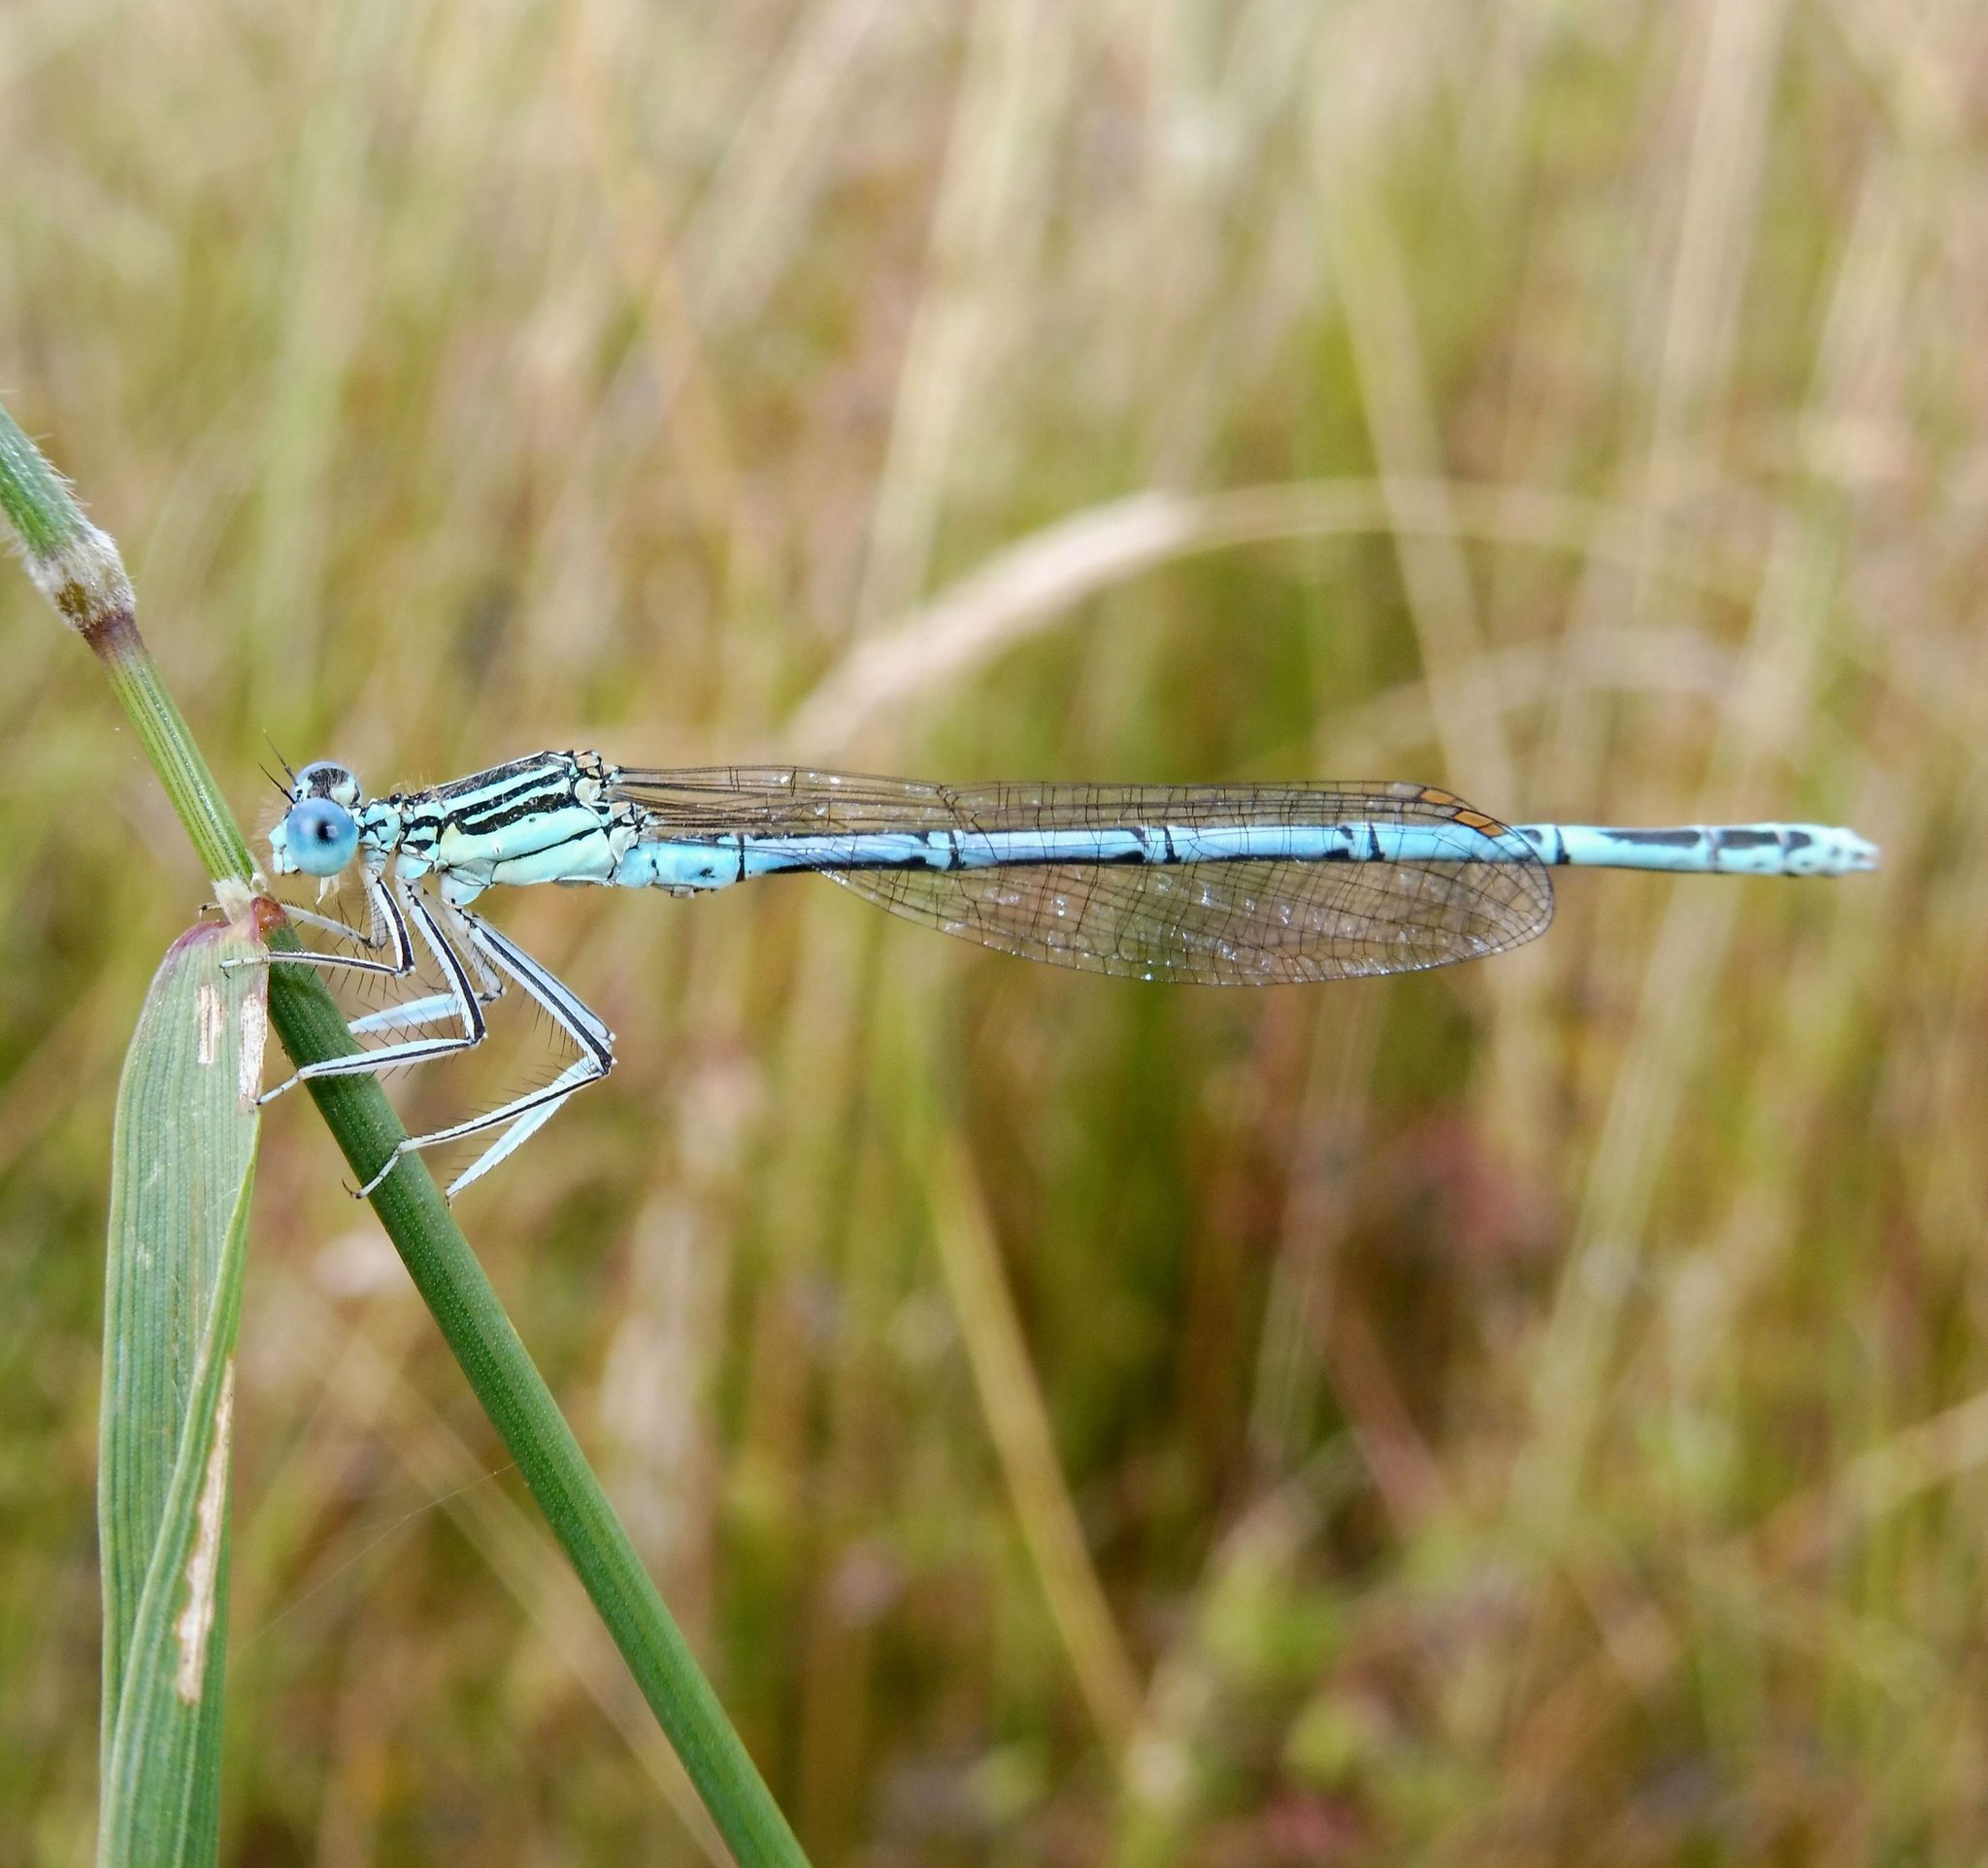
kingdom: Animalia
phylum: Arthropoda
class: Insecta
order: Odonata
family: Platycnemididae
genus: Platycnemis
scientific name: Platycnemis pennipes
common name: White-legged damselfly
